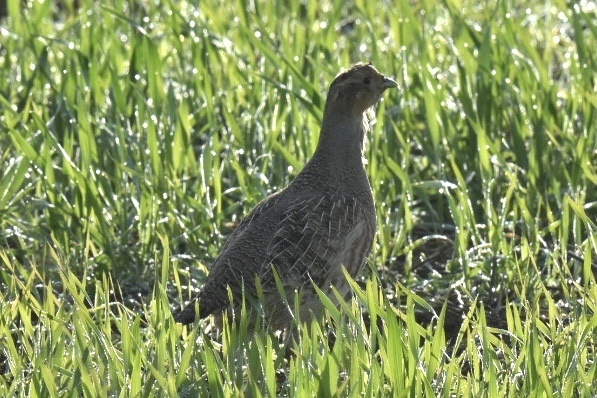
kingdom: Animalia
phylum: Chordata
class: Aves
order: Galliformes
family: Phasianidae
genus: Perdix
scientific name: Perdix perdix
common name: Grey partridge
